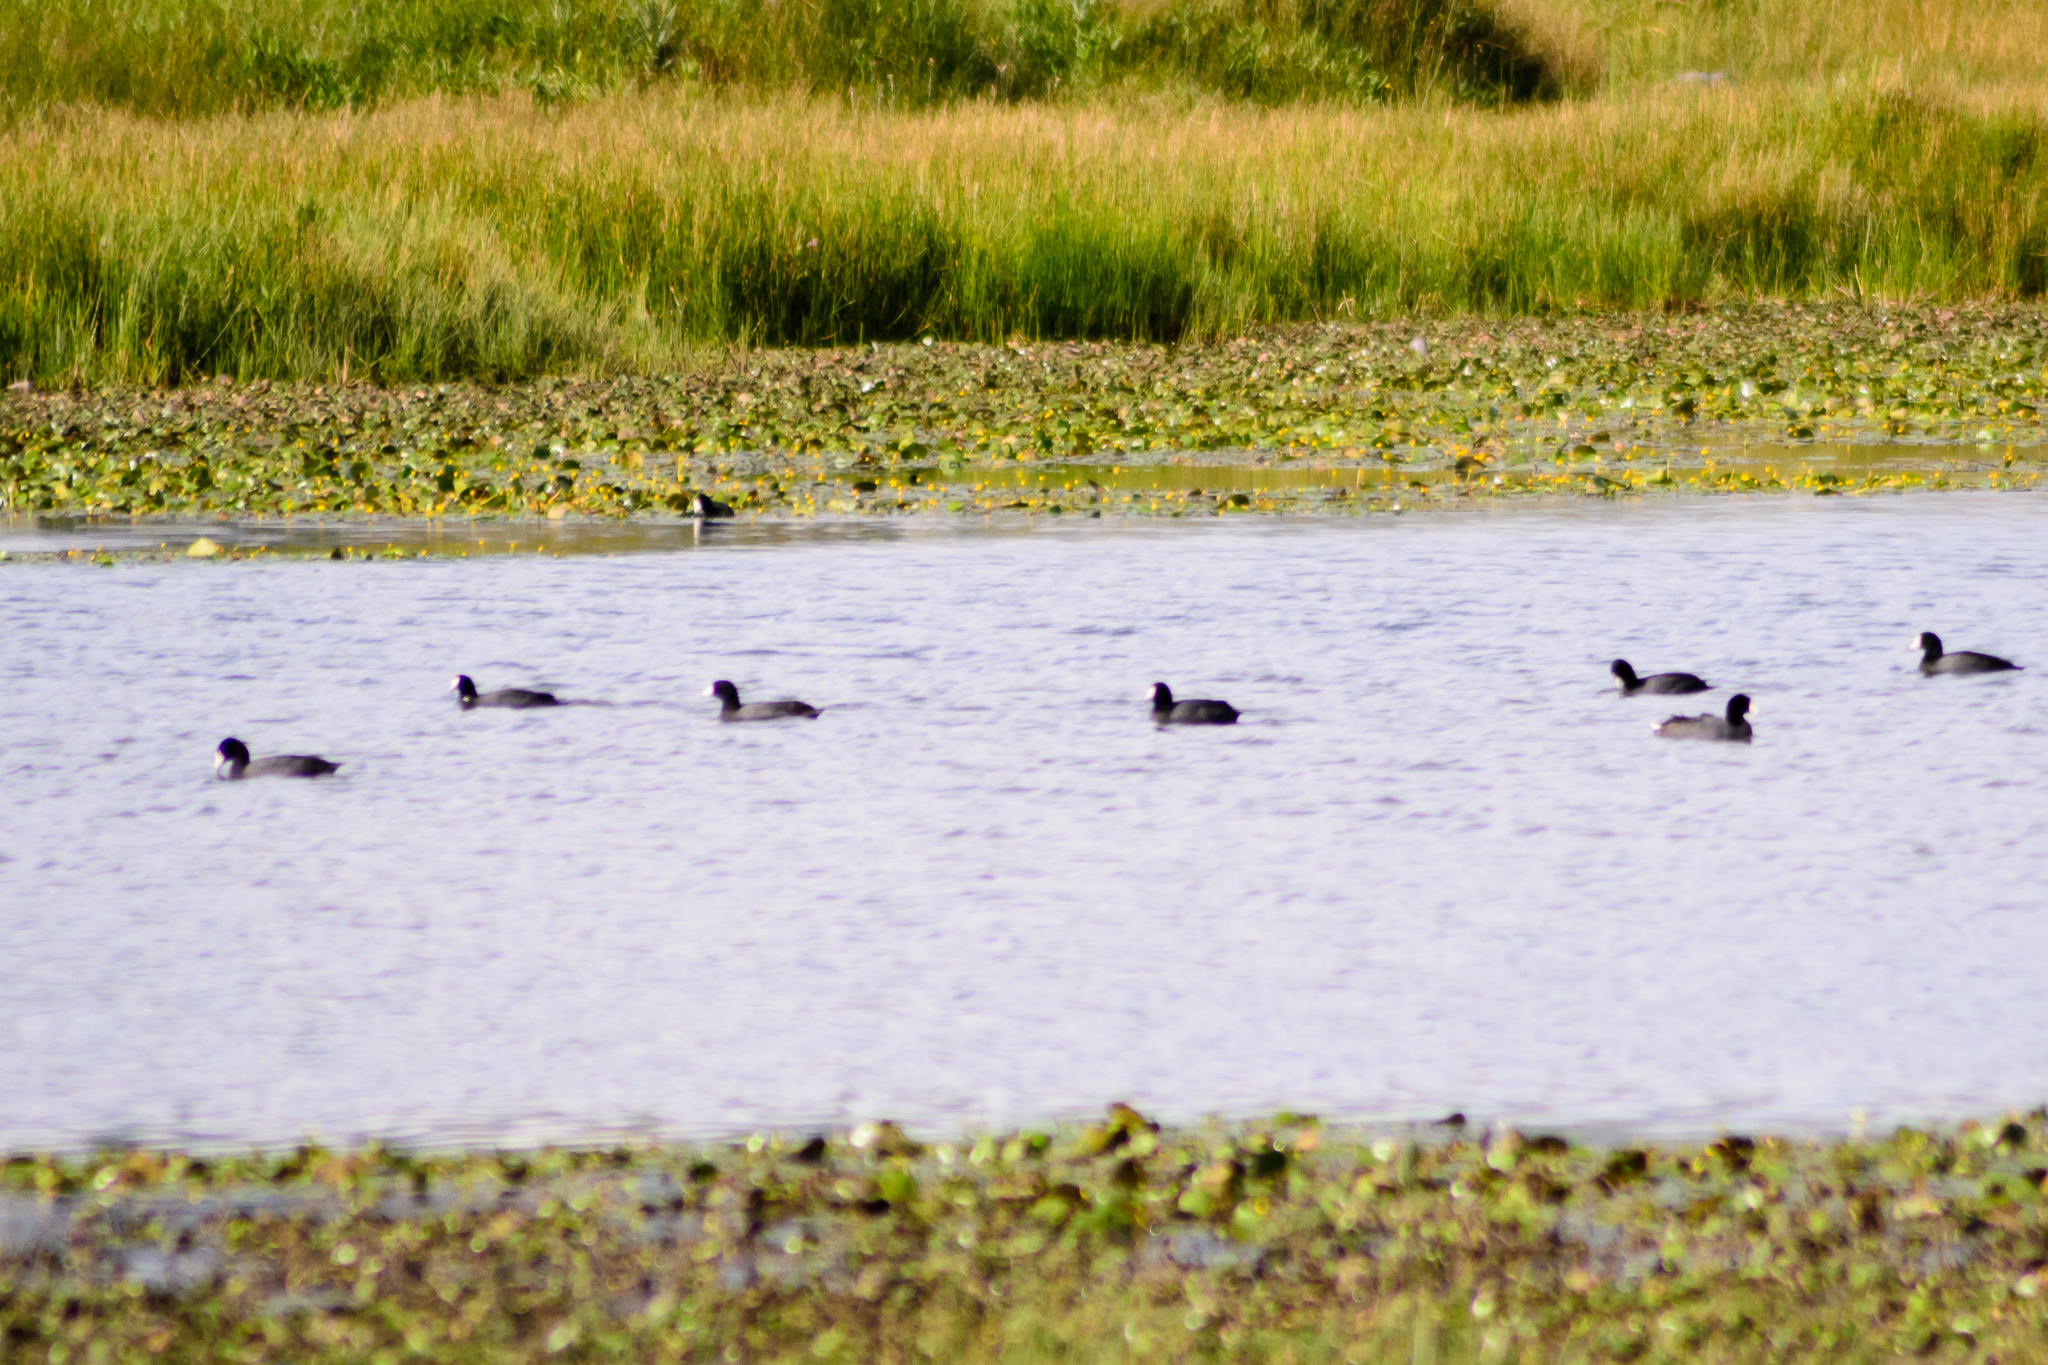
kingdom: Animalia
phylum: Chordata
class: Aves
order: Gruiformes
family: Rallidae
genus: Fulica
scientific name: Fulica americana
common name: American coot
